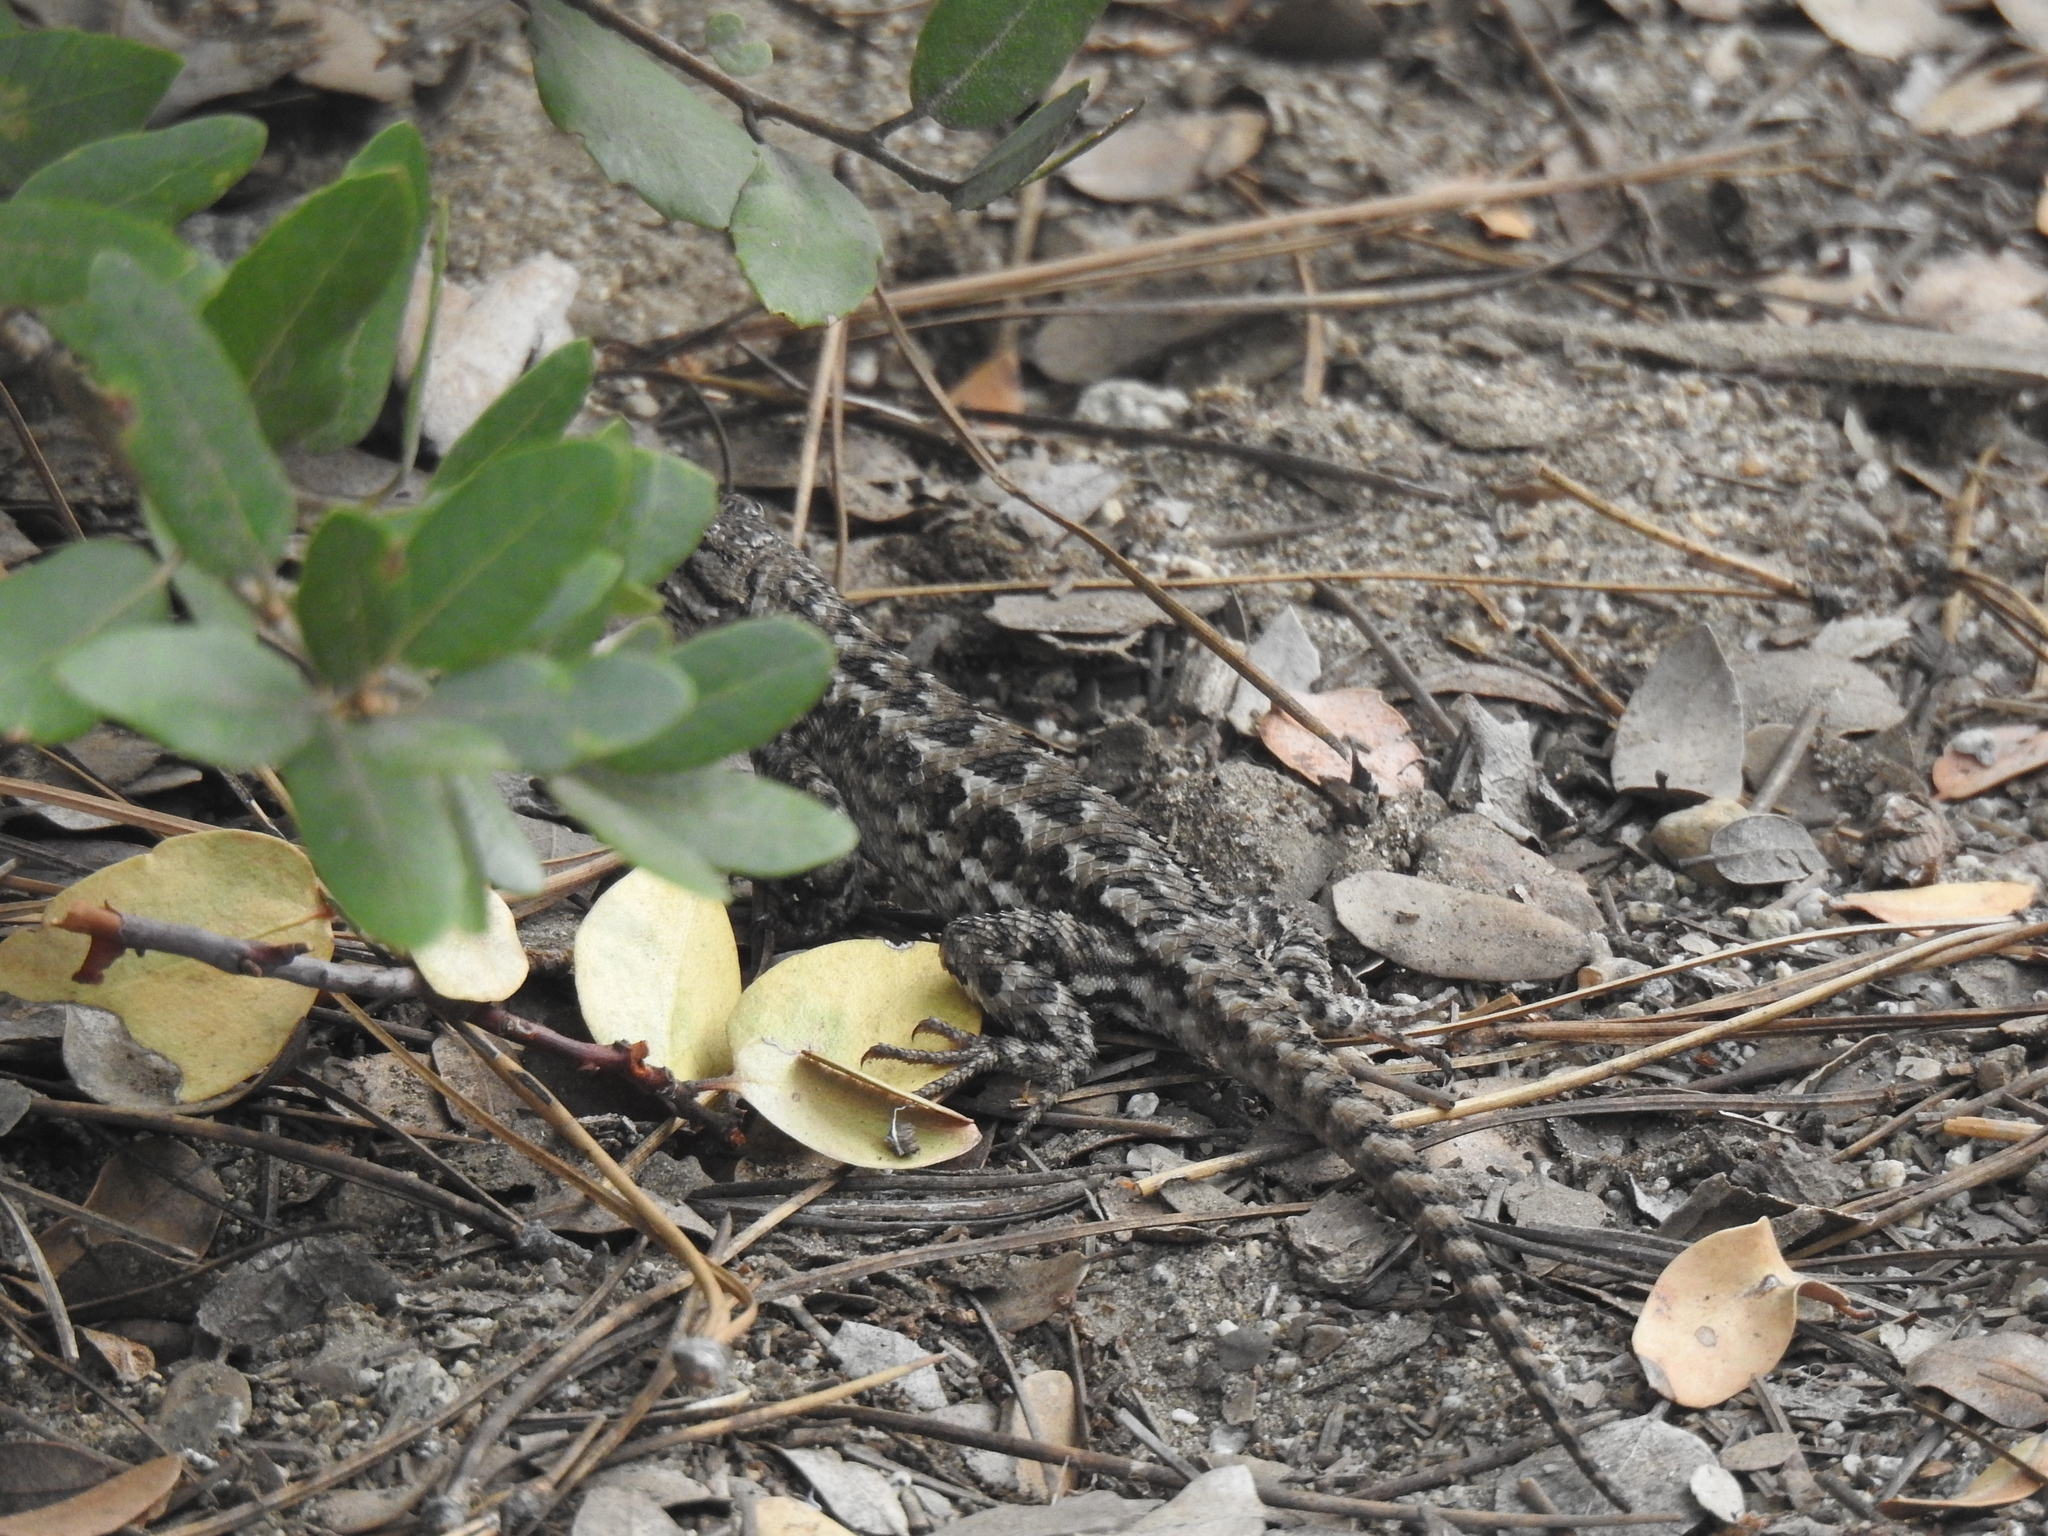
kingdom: Animalia
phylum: Chordata
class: Squamata
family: Phrynosomatidae
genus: Sceloporus
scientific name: Sceloporus occidentalis
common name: Western fence lizard
